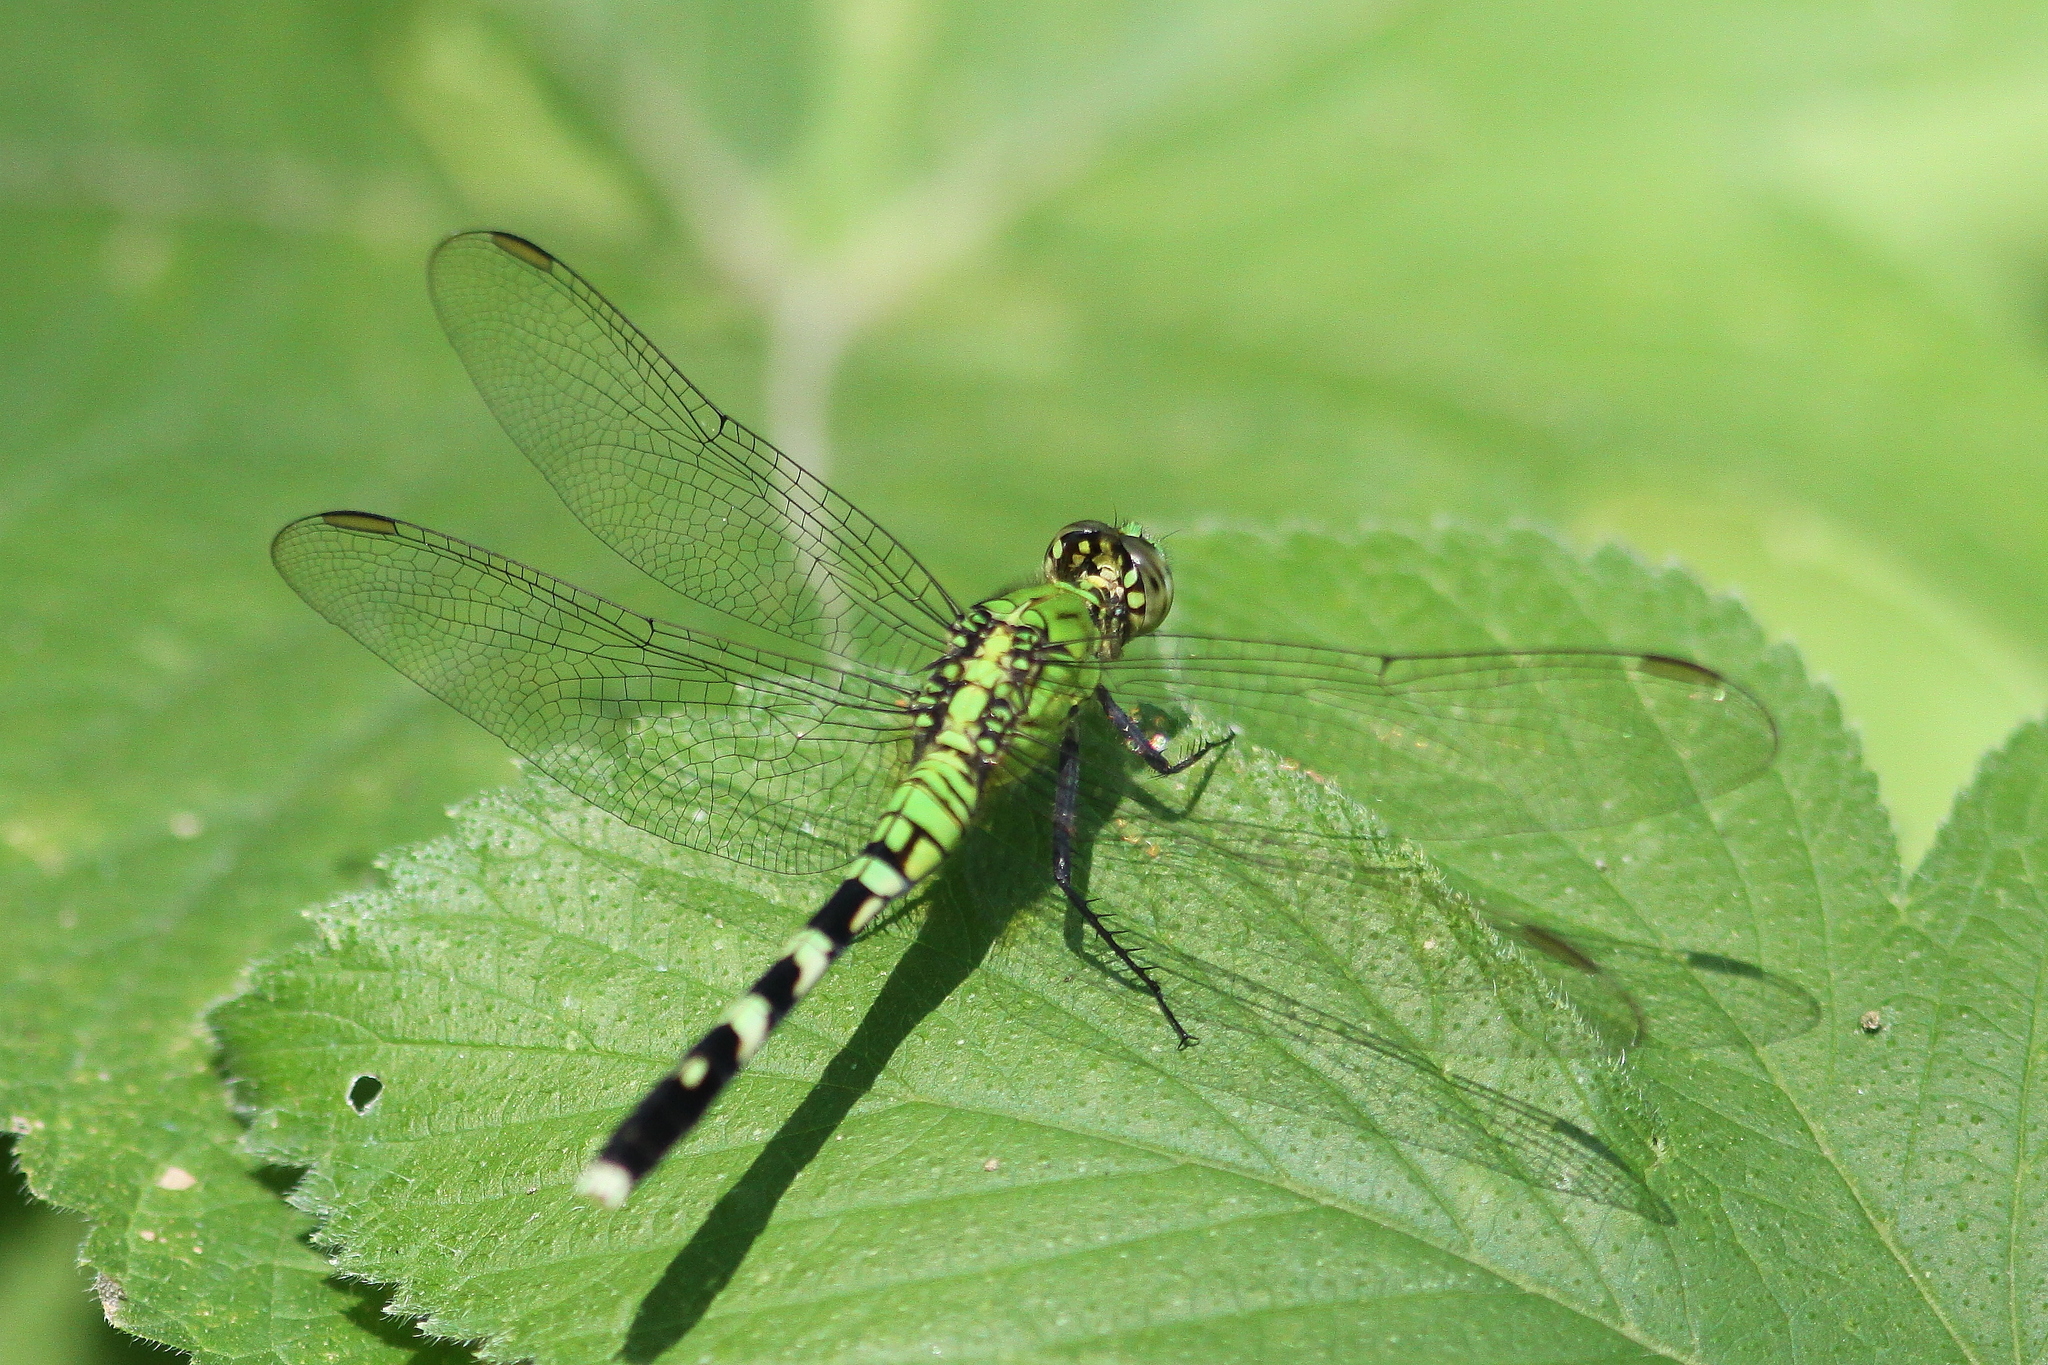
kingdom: Animalia
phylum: Arthropoda
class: Insecta
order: Odonata
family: Libellulidae
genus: Erythemis
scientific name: Erythemis simplicicollis
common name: Eastern pondhawk
